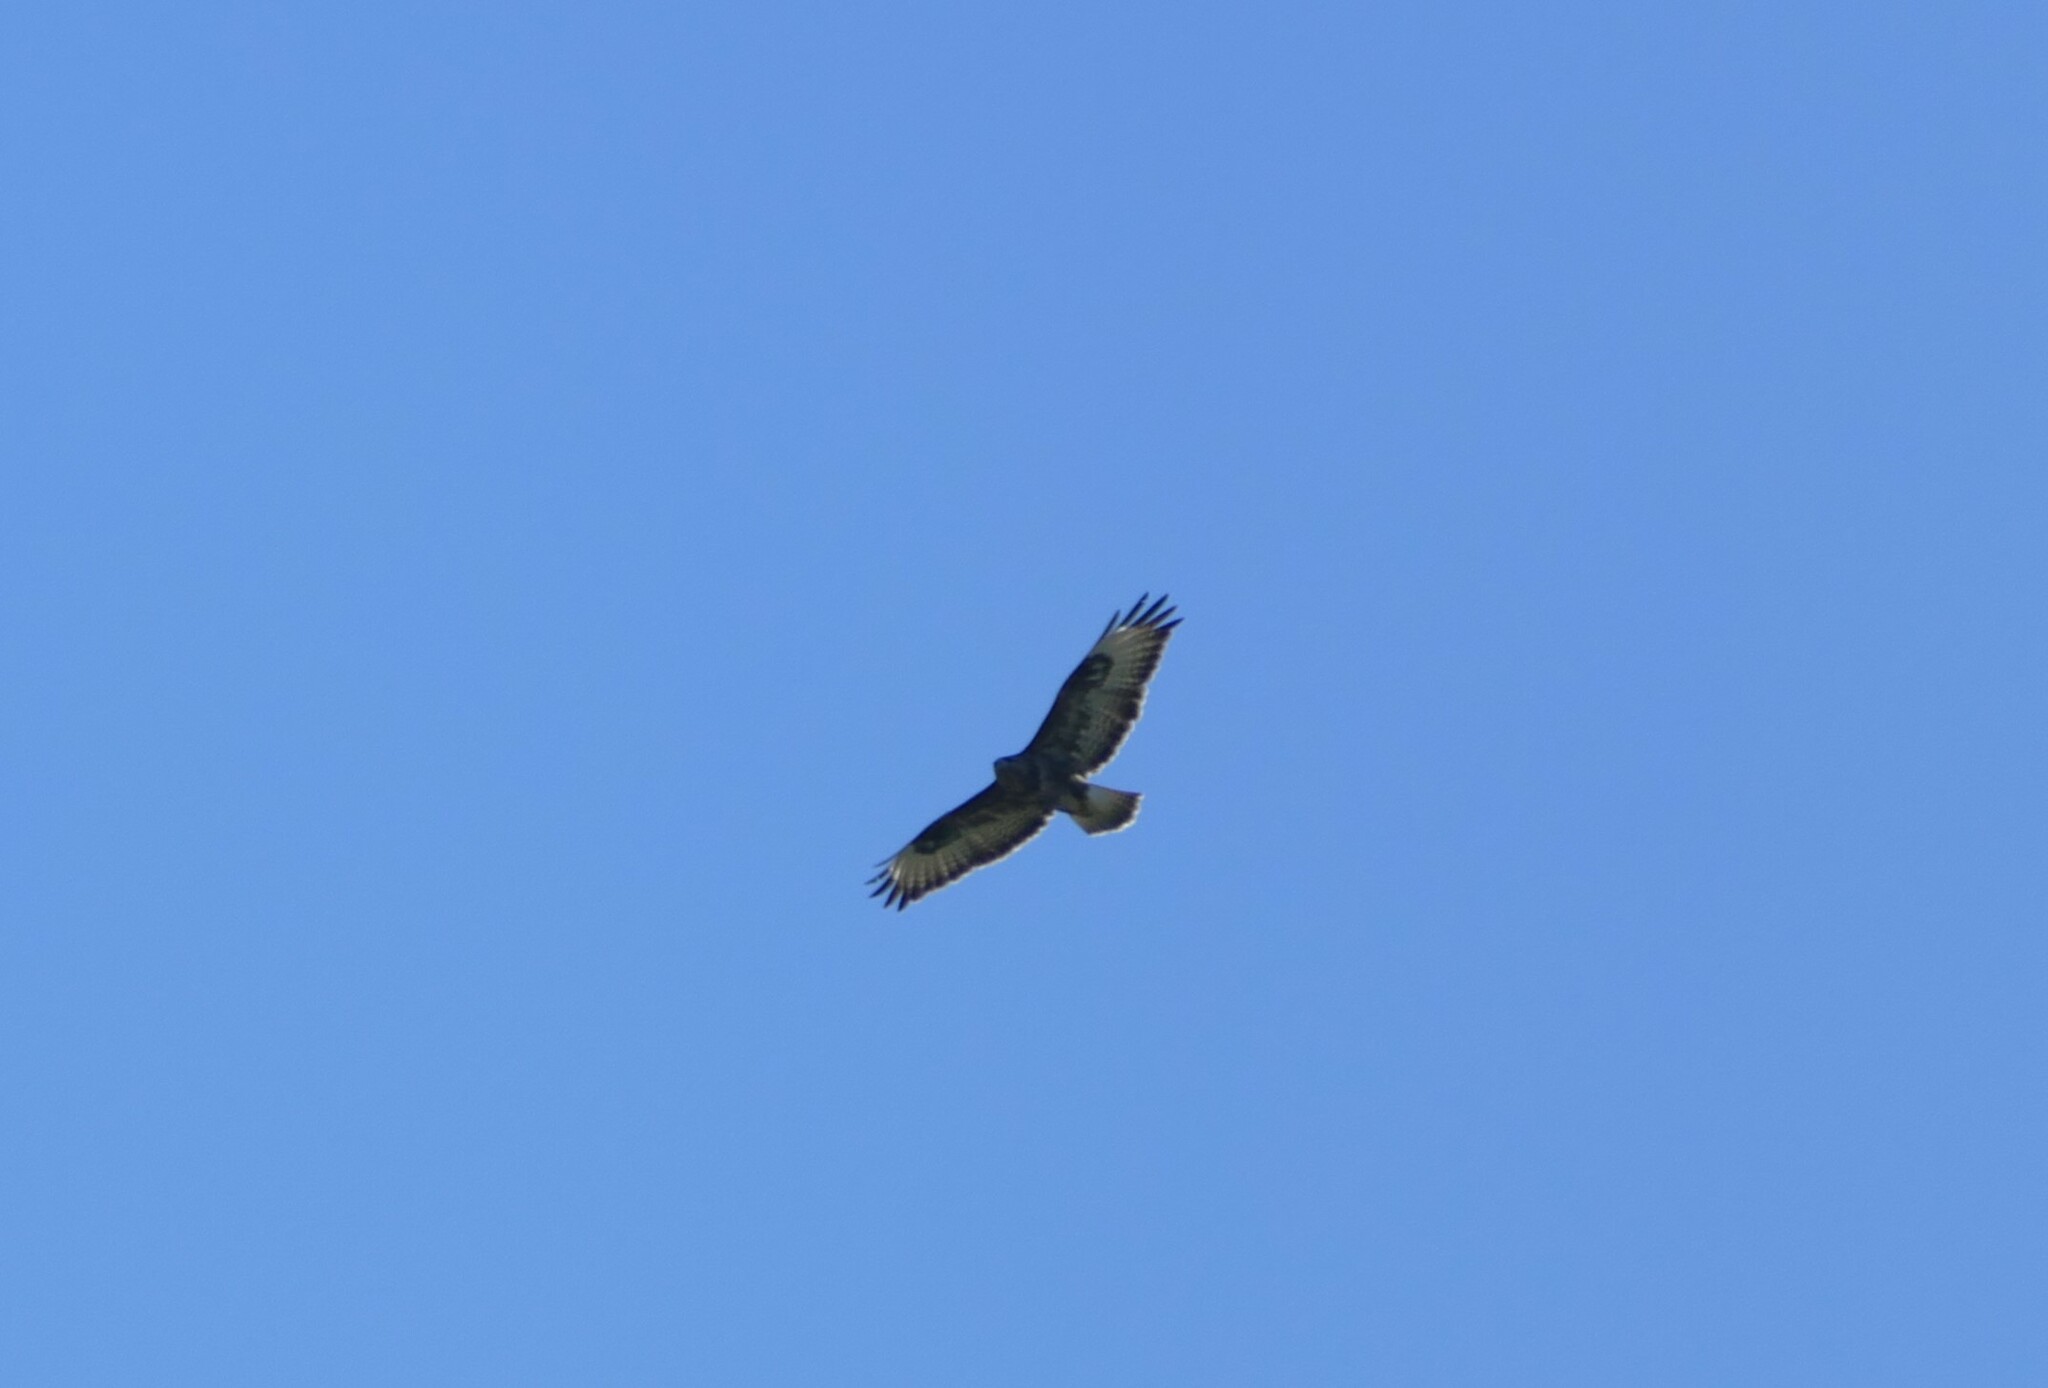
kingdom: Animalia
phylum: Chordata
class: Aves
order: Accipitriformes
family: Accipitridae
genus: Buteo
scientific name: Buteo buteo
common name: Common buzzard
